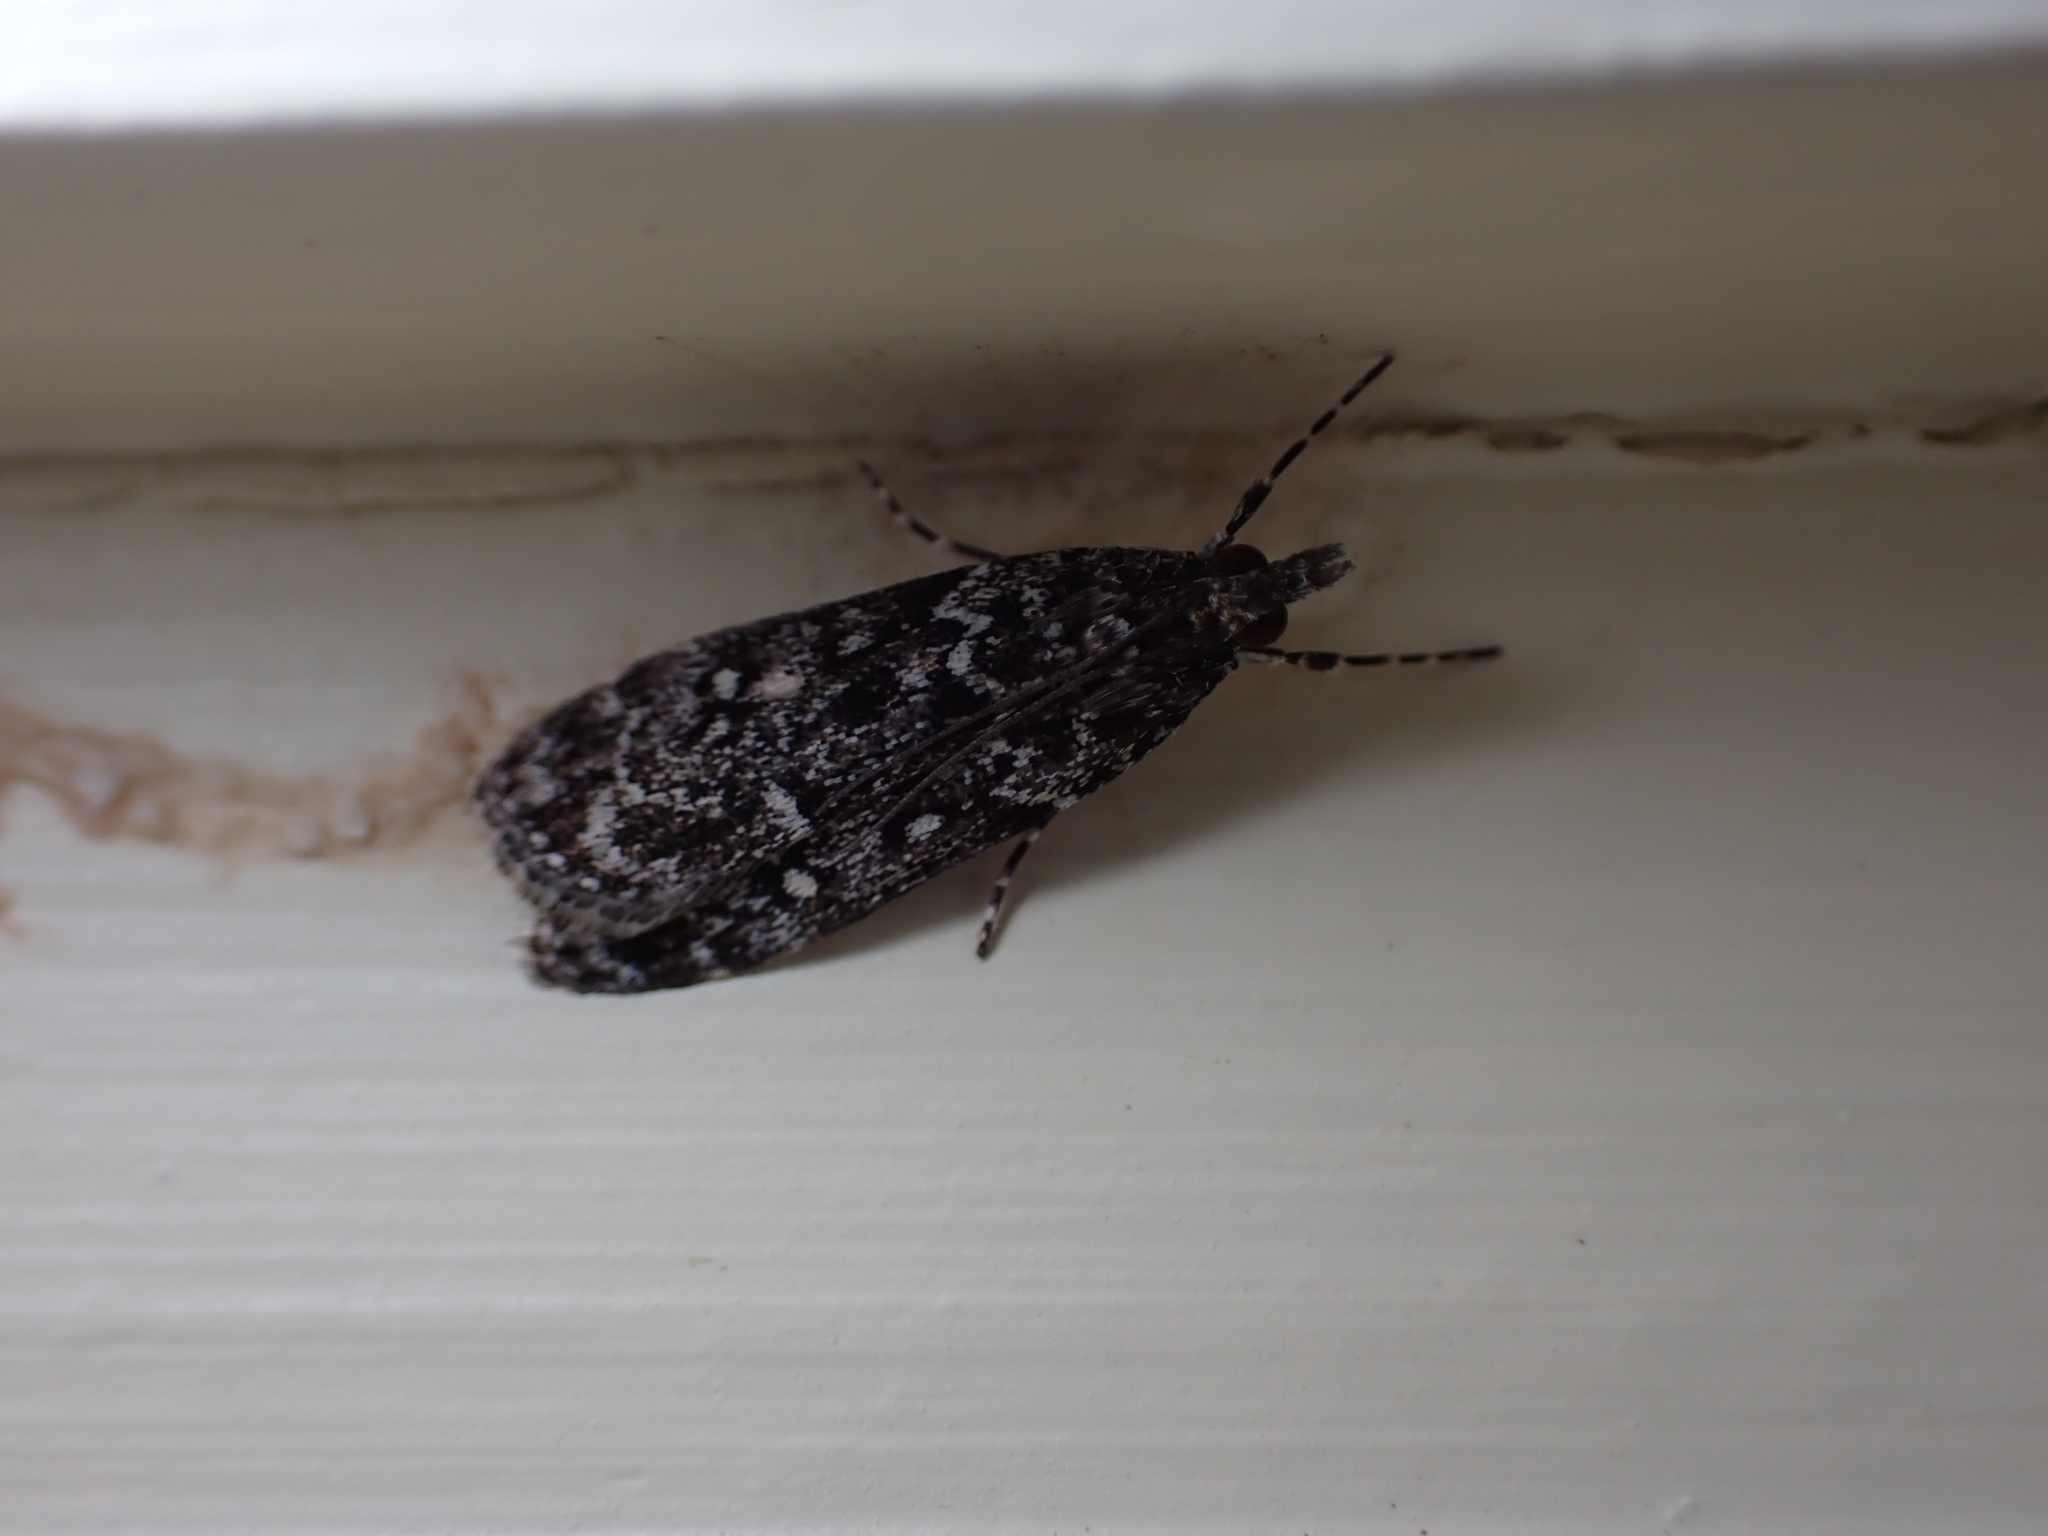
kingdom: Animalia
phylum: Arthropoda
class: Insecta
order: Lepidoptera
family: Crambidae
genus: Eudonia
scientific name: Eudonia philerga
